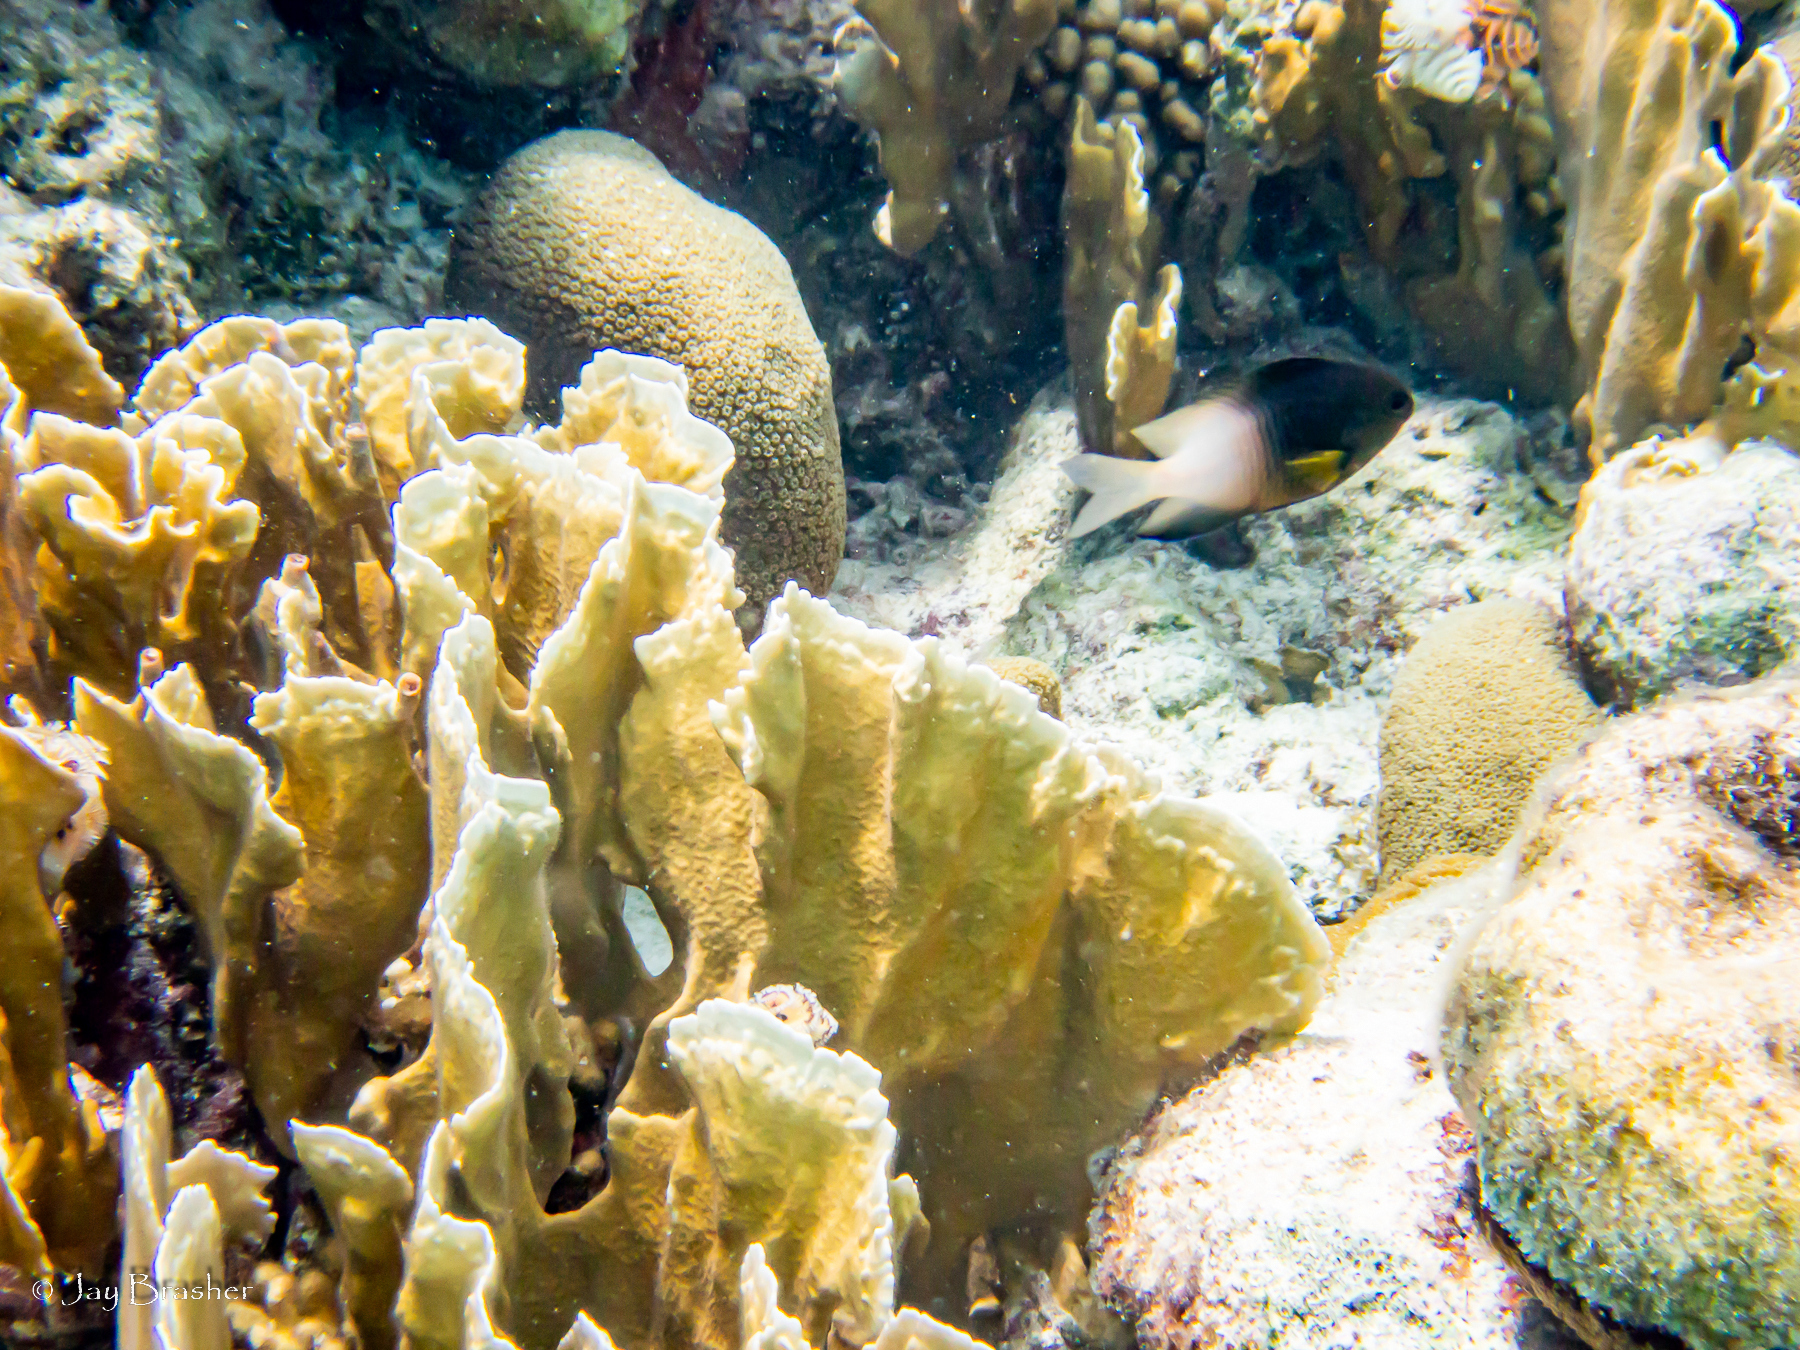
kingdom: Animalia
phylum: Cnidaria
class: Hydrozoa
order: Anthoathecata
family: Milleporidae
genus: Millepora
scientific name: Millepora complanata
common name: Bladed fire coral
